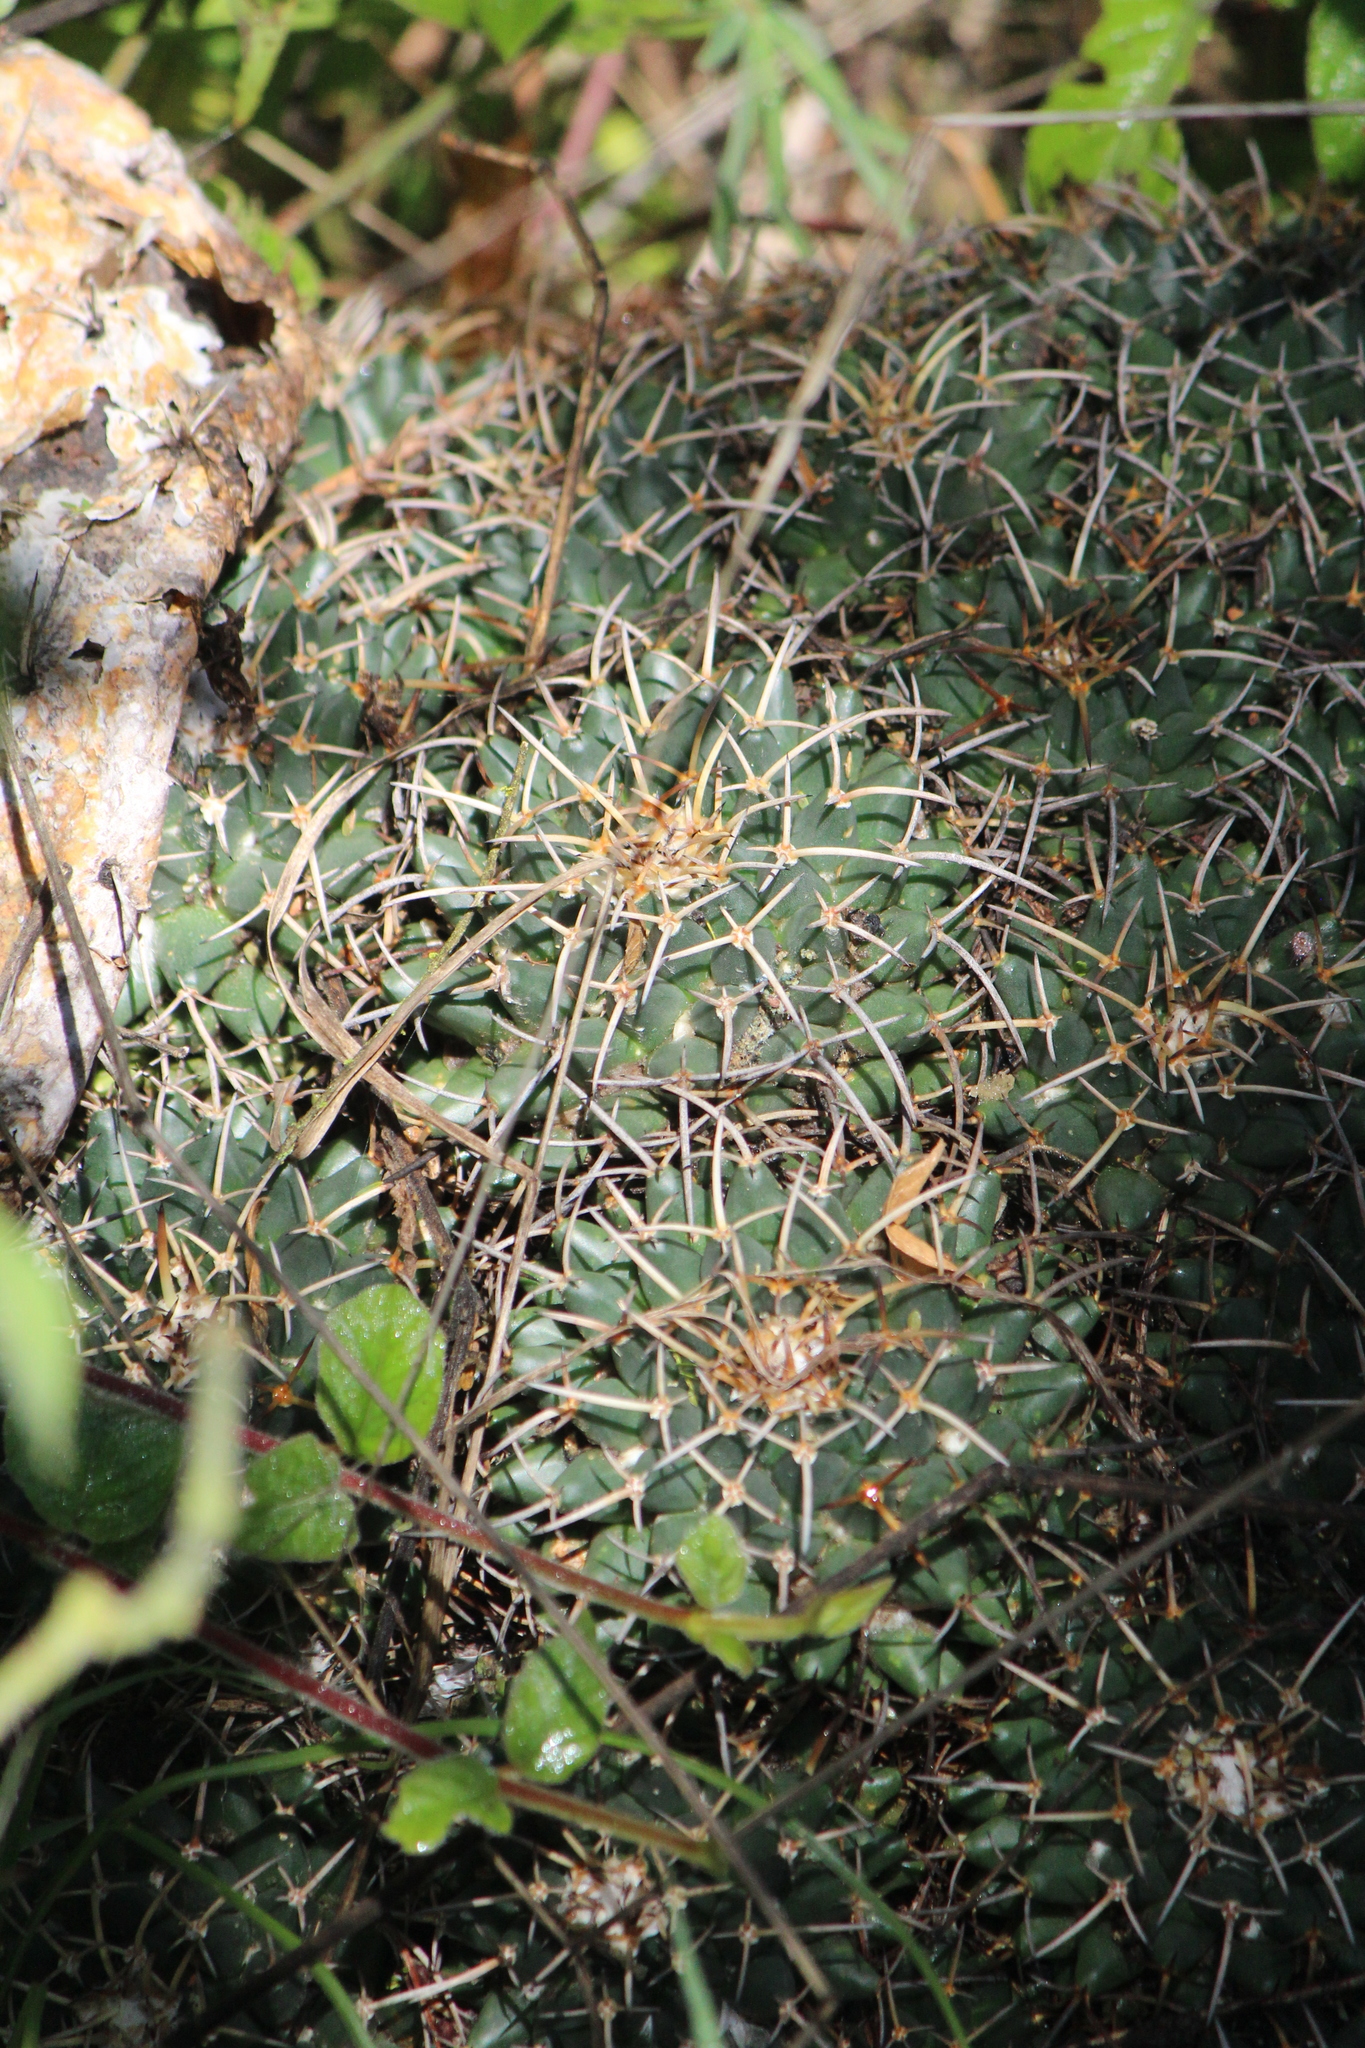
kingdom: Plantae
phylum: Tracheophyta
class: Magnoliopsida
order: Caryophyllales
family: Cactaceae
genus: Mammillaria
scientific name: Mammillaria magnimamma
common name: Mexican pincushion
